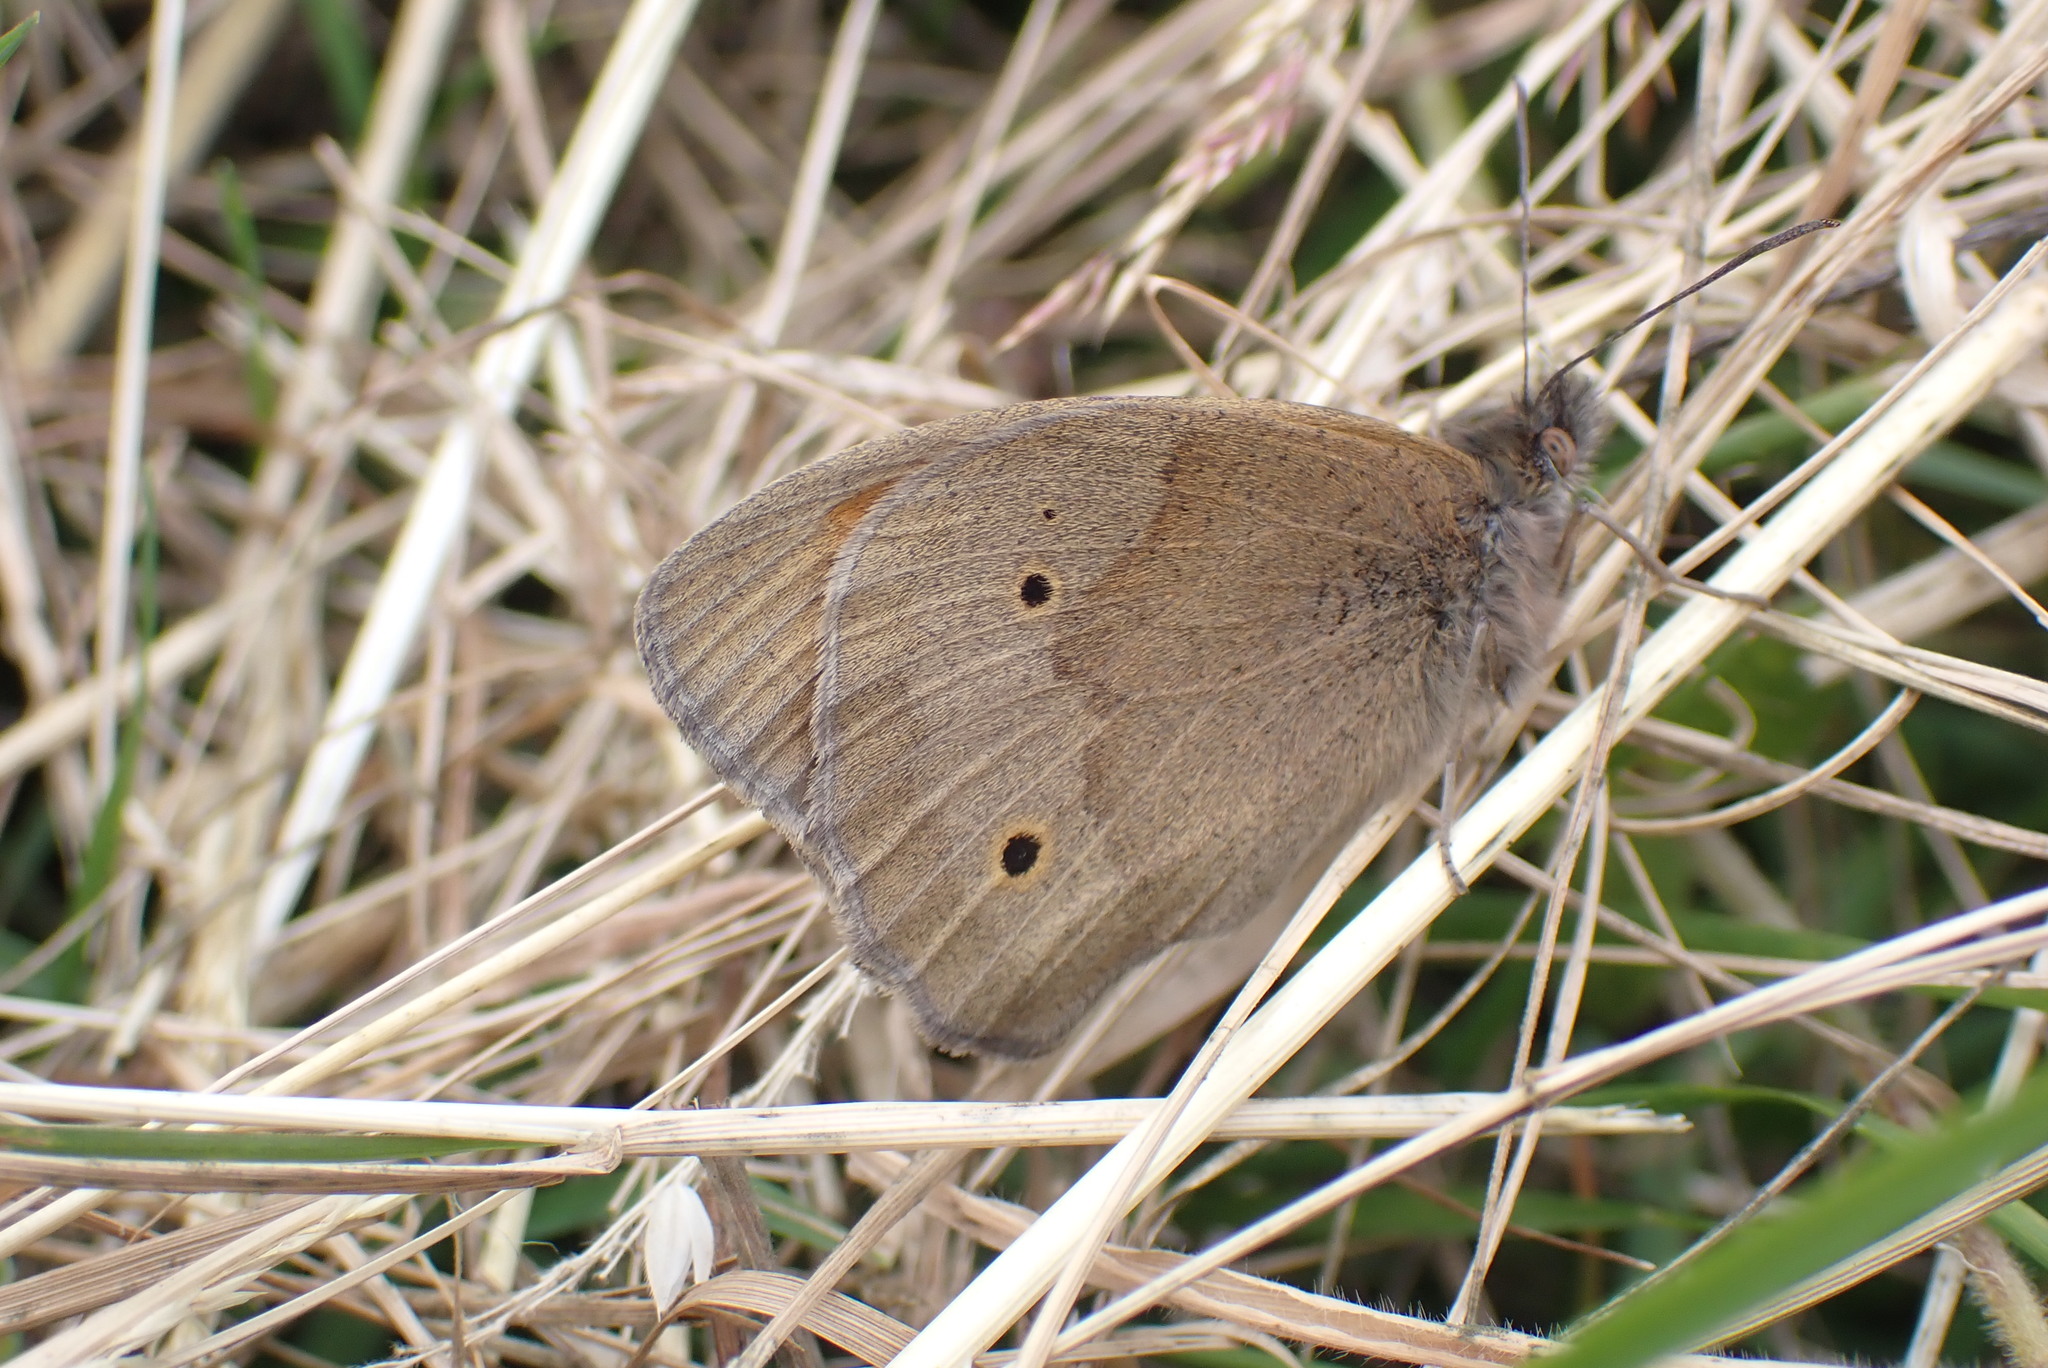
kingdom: Animalia
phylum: Arthropoda
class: Insecta
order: Lepidoptera
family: Nymphalidae
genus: Maniola
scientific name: Maniola jurtina
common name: Meadow brown
